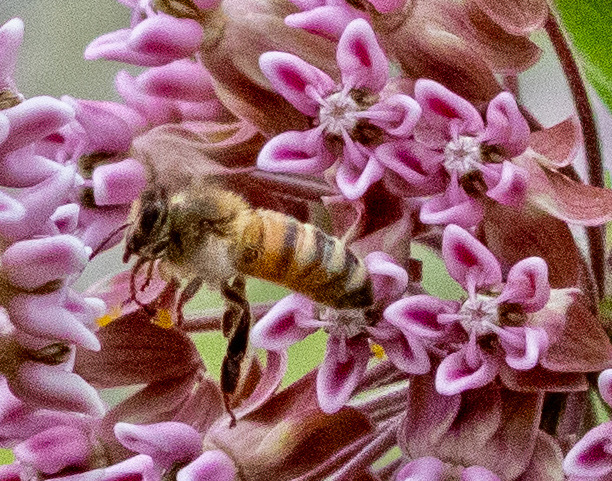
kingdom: Animalia
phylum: Arthropoda
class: Insecta
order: Hymenoptera
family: Apidae
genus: Apis
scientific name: Apis mellifera
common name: Honey bee
